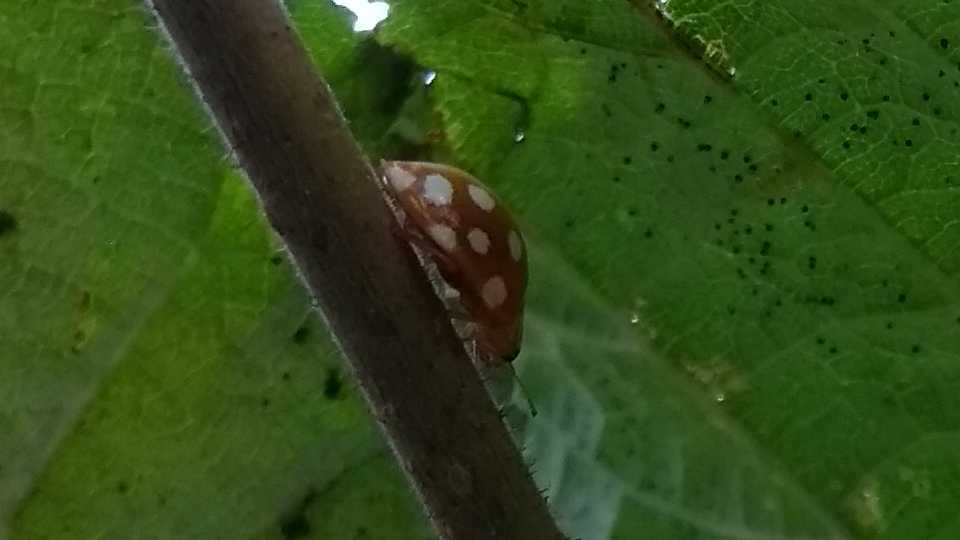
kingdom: Animalia
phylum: Arthropoda
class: Insecta
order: Coleoptera
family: Coccinellidae
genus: Halyzia
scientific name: Halyzia sedecimguttata
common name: Orange ladybird
